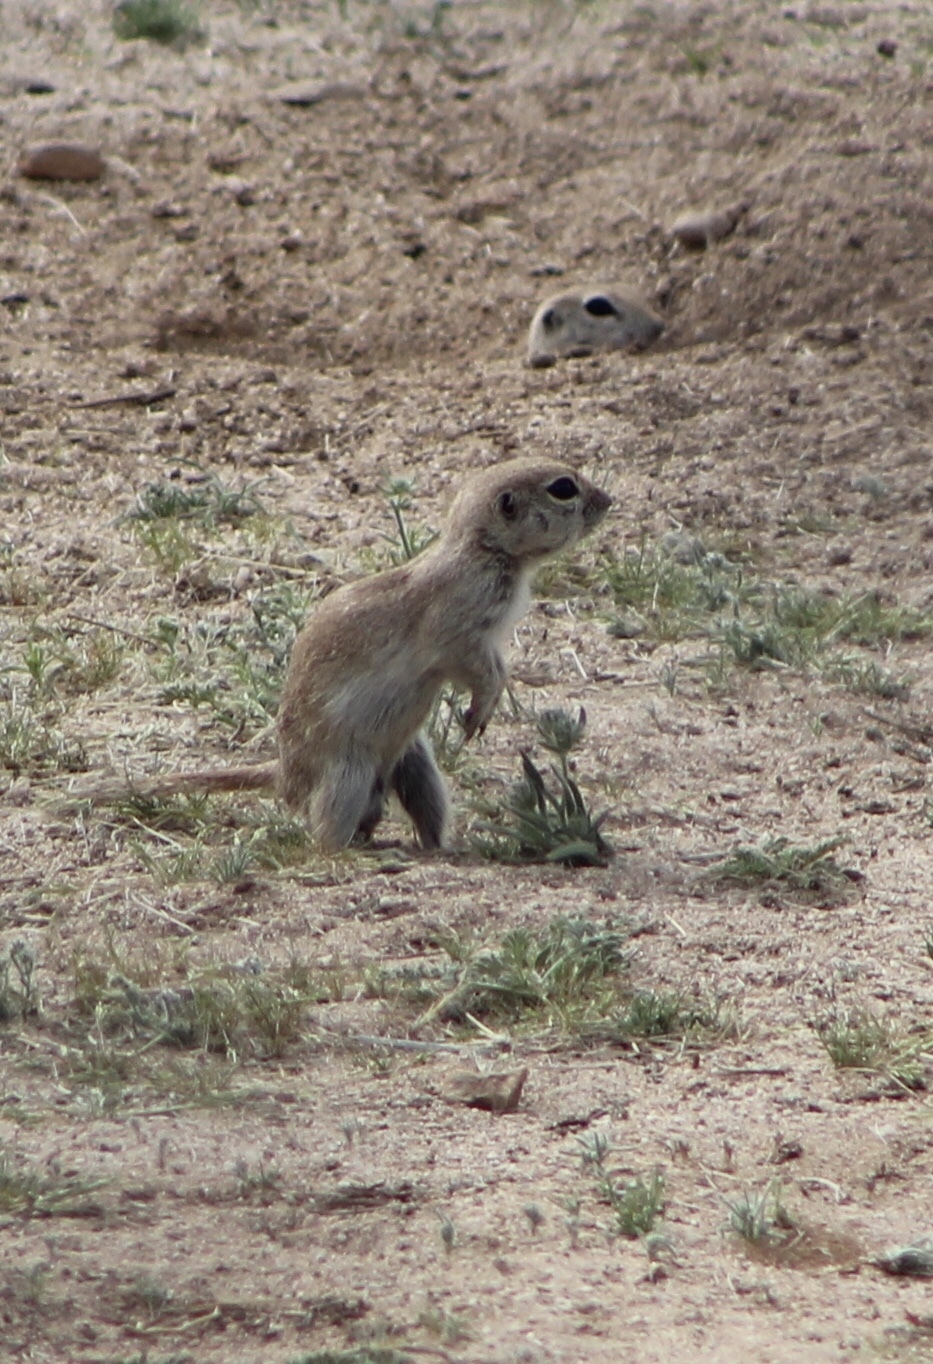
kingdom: Animalia
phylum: Chordata
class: Mammalia
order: Rodentia
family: Sciuridae
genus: Xerospermophilus
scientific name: Xerospermophilus tereticaudus
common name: Round-tailed ground squirrel
